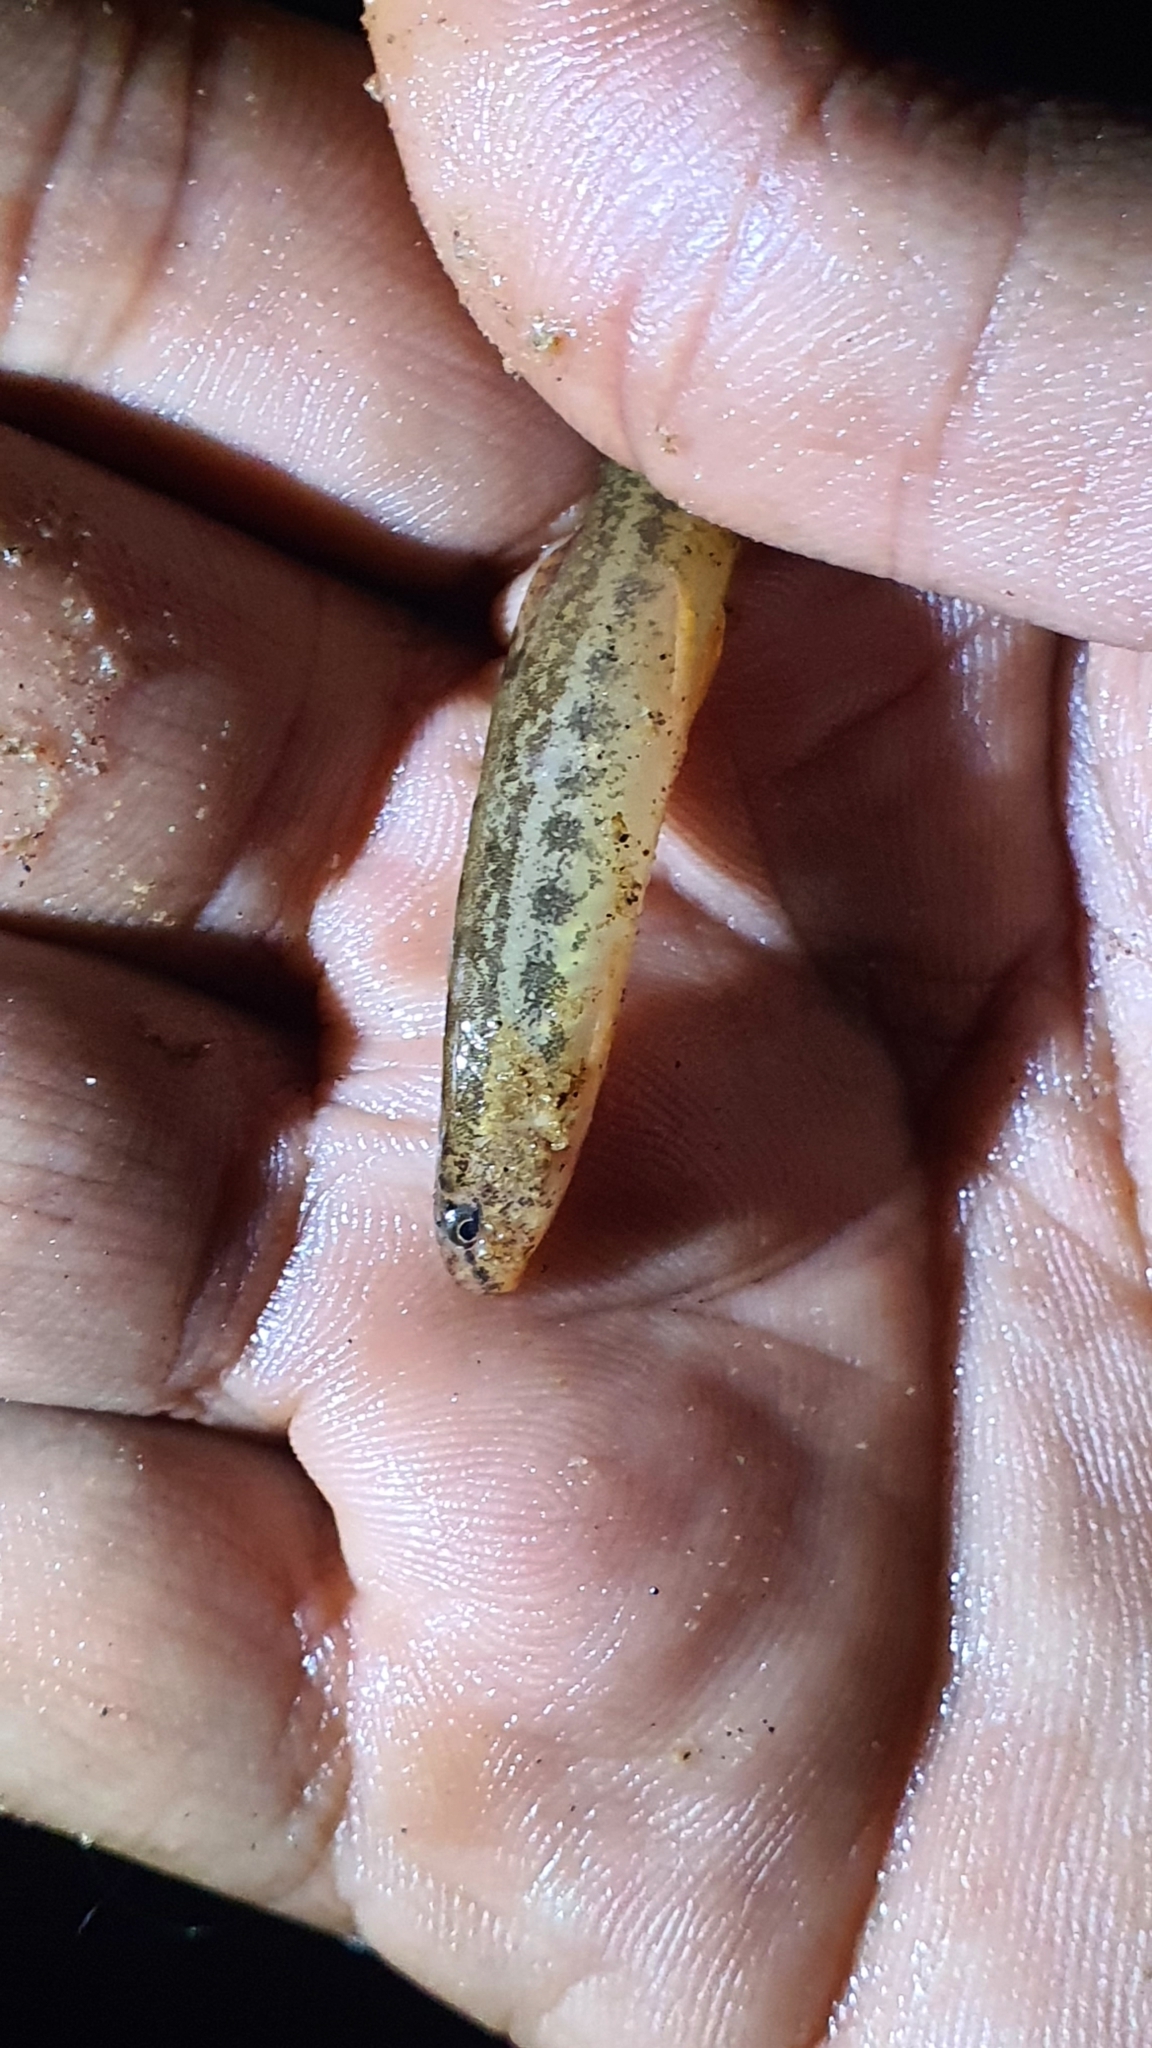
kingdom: Animalia
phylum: Chordata
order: Cypriniformes
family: Cobitidae
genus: Lepidocephalichthys
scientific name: Lepidocephalichthys thermalis
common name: Common spiny loach
